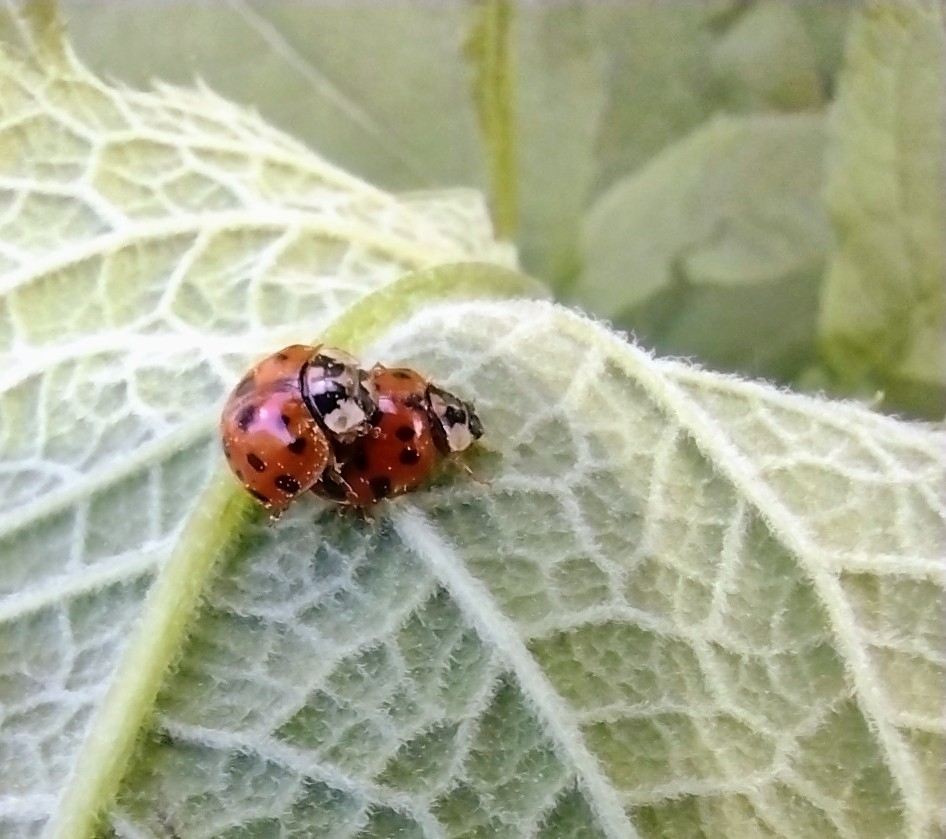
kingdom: Animalia
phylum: Arthropoda
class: Insecta
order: Coleoptera
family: Coccinellidae
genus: Harmonia
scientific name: Harmonia axyridis
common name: Harlequin ladybird
